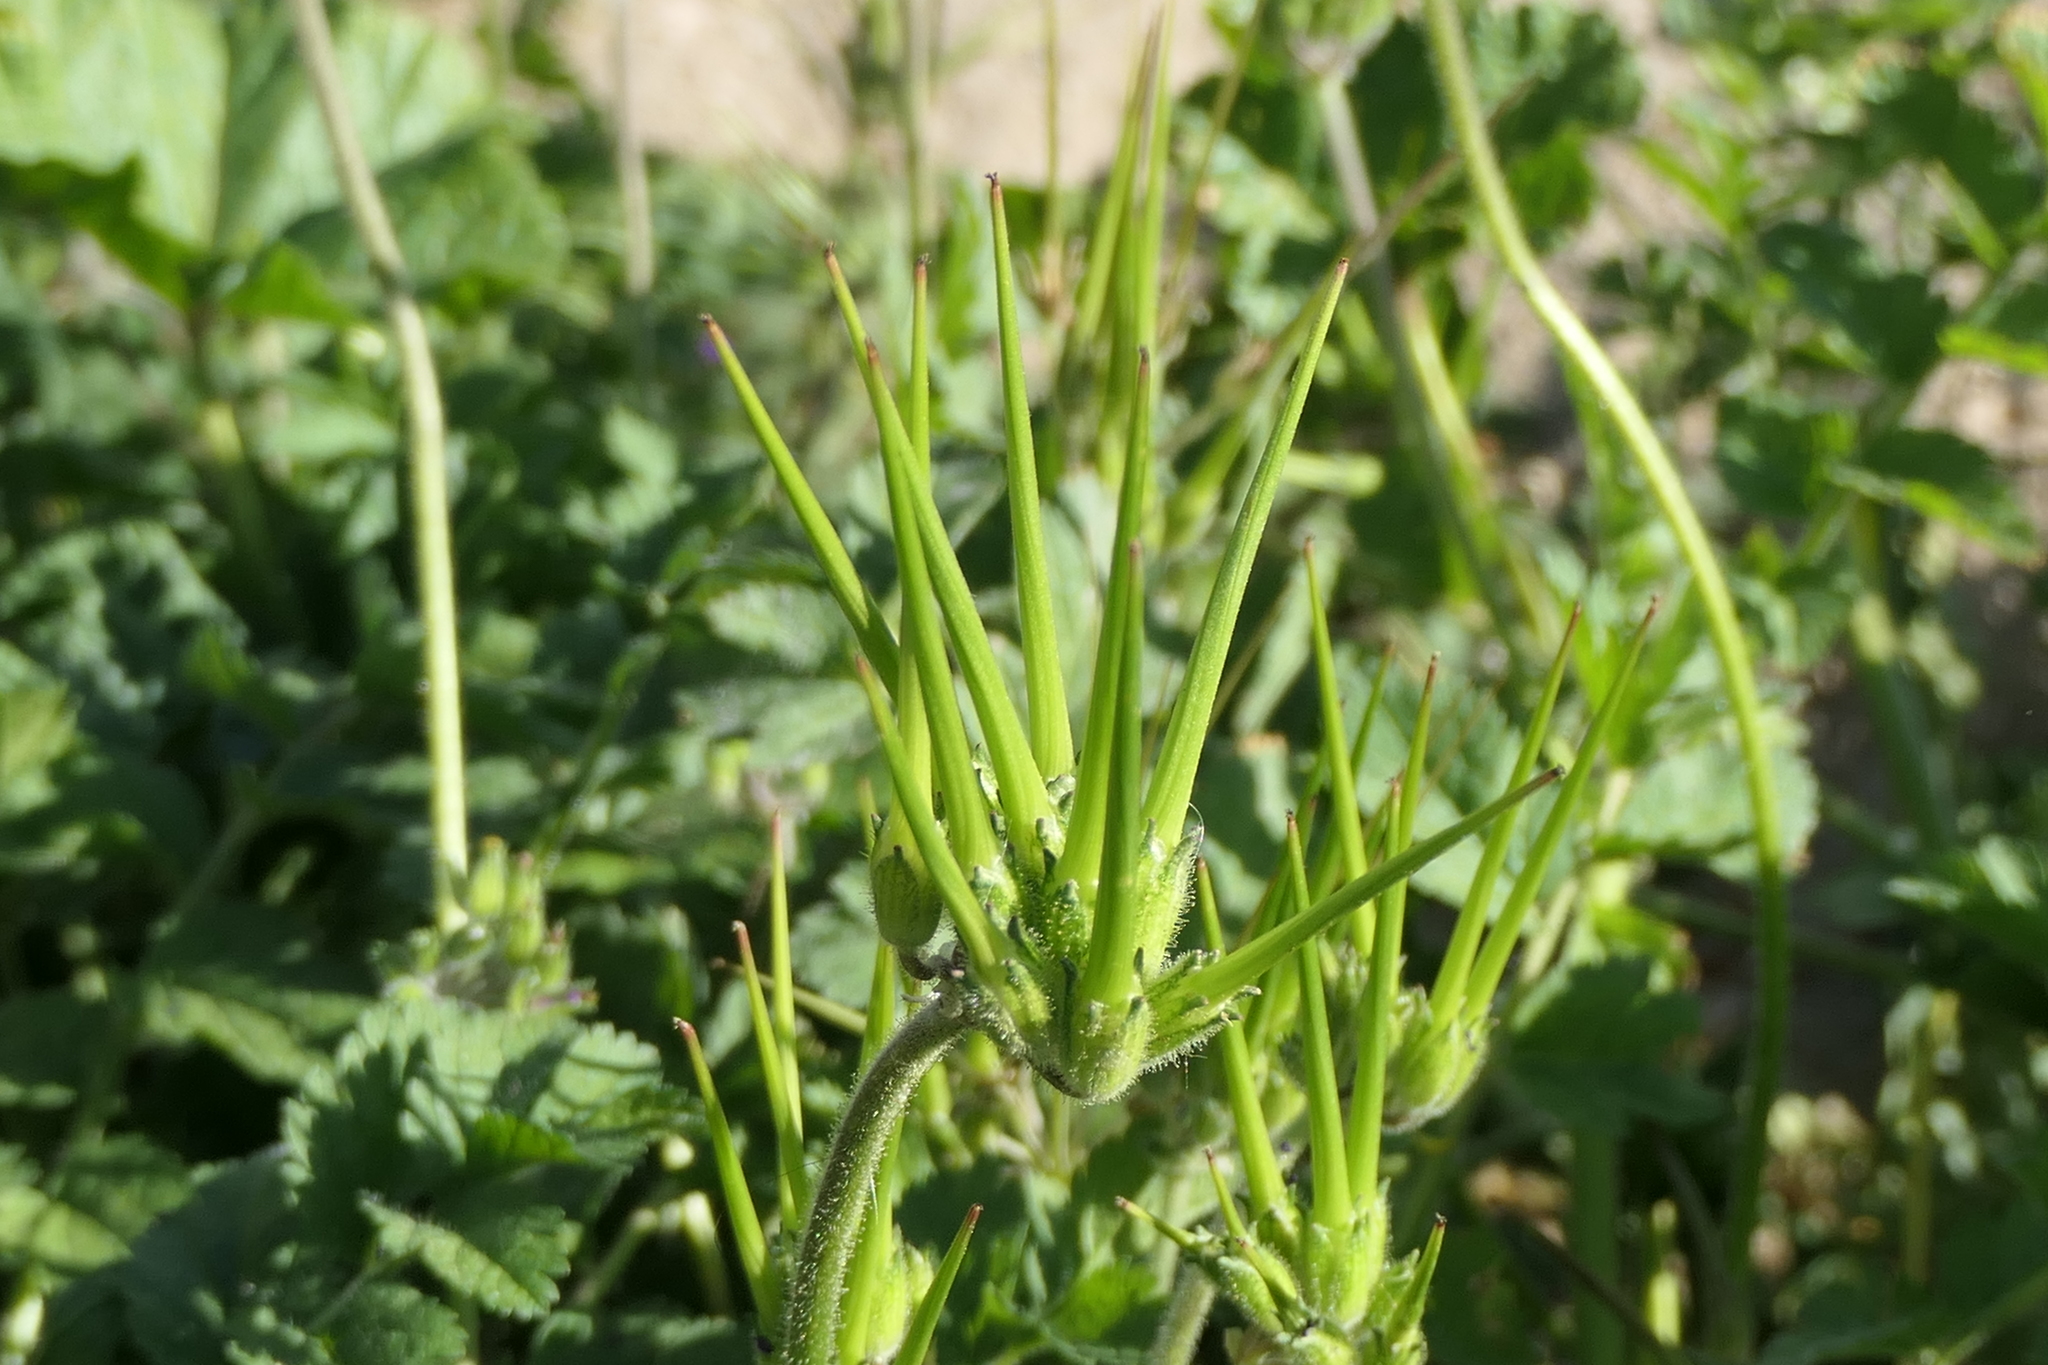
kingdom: Plantae
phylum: Tracheophyta
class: Magnoliopsida
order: Geraniales
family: Geraniaceae
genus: Erodium
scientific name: Erodium moschatum
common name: Musk stork's-bill
